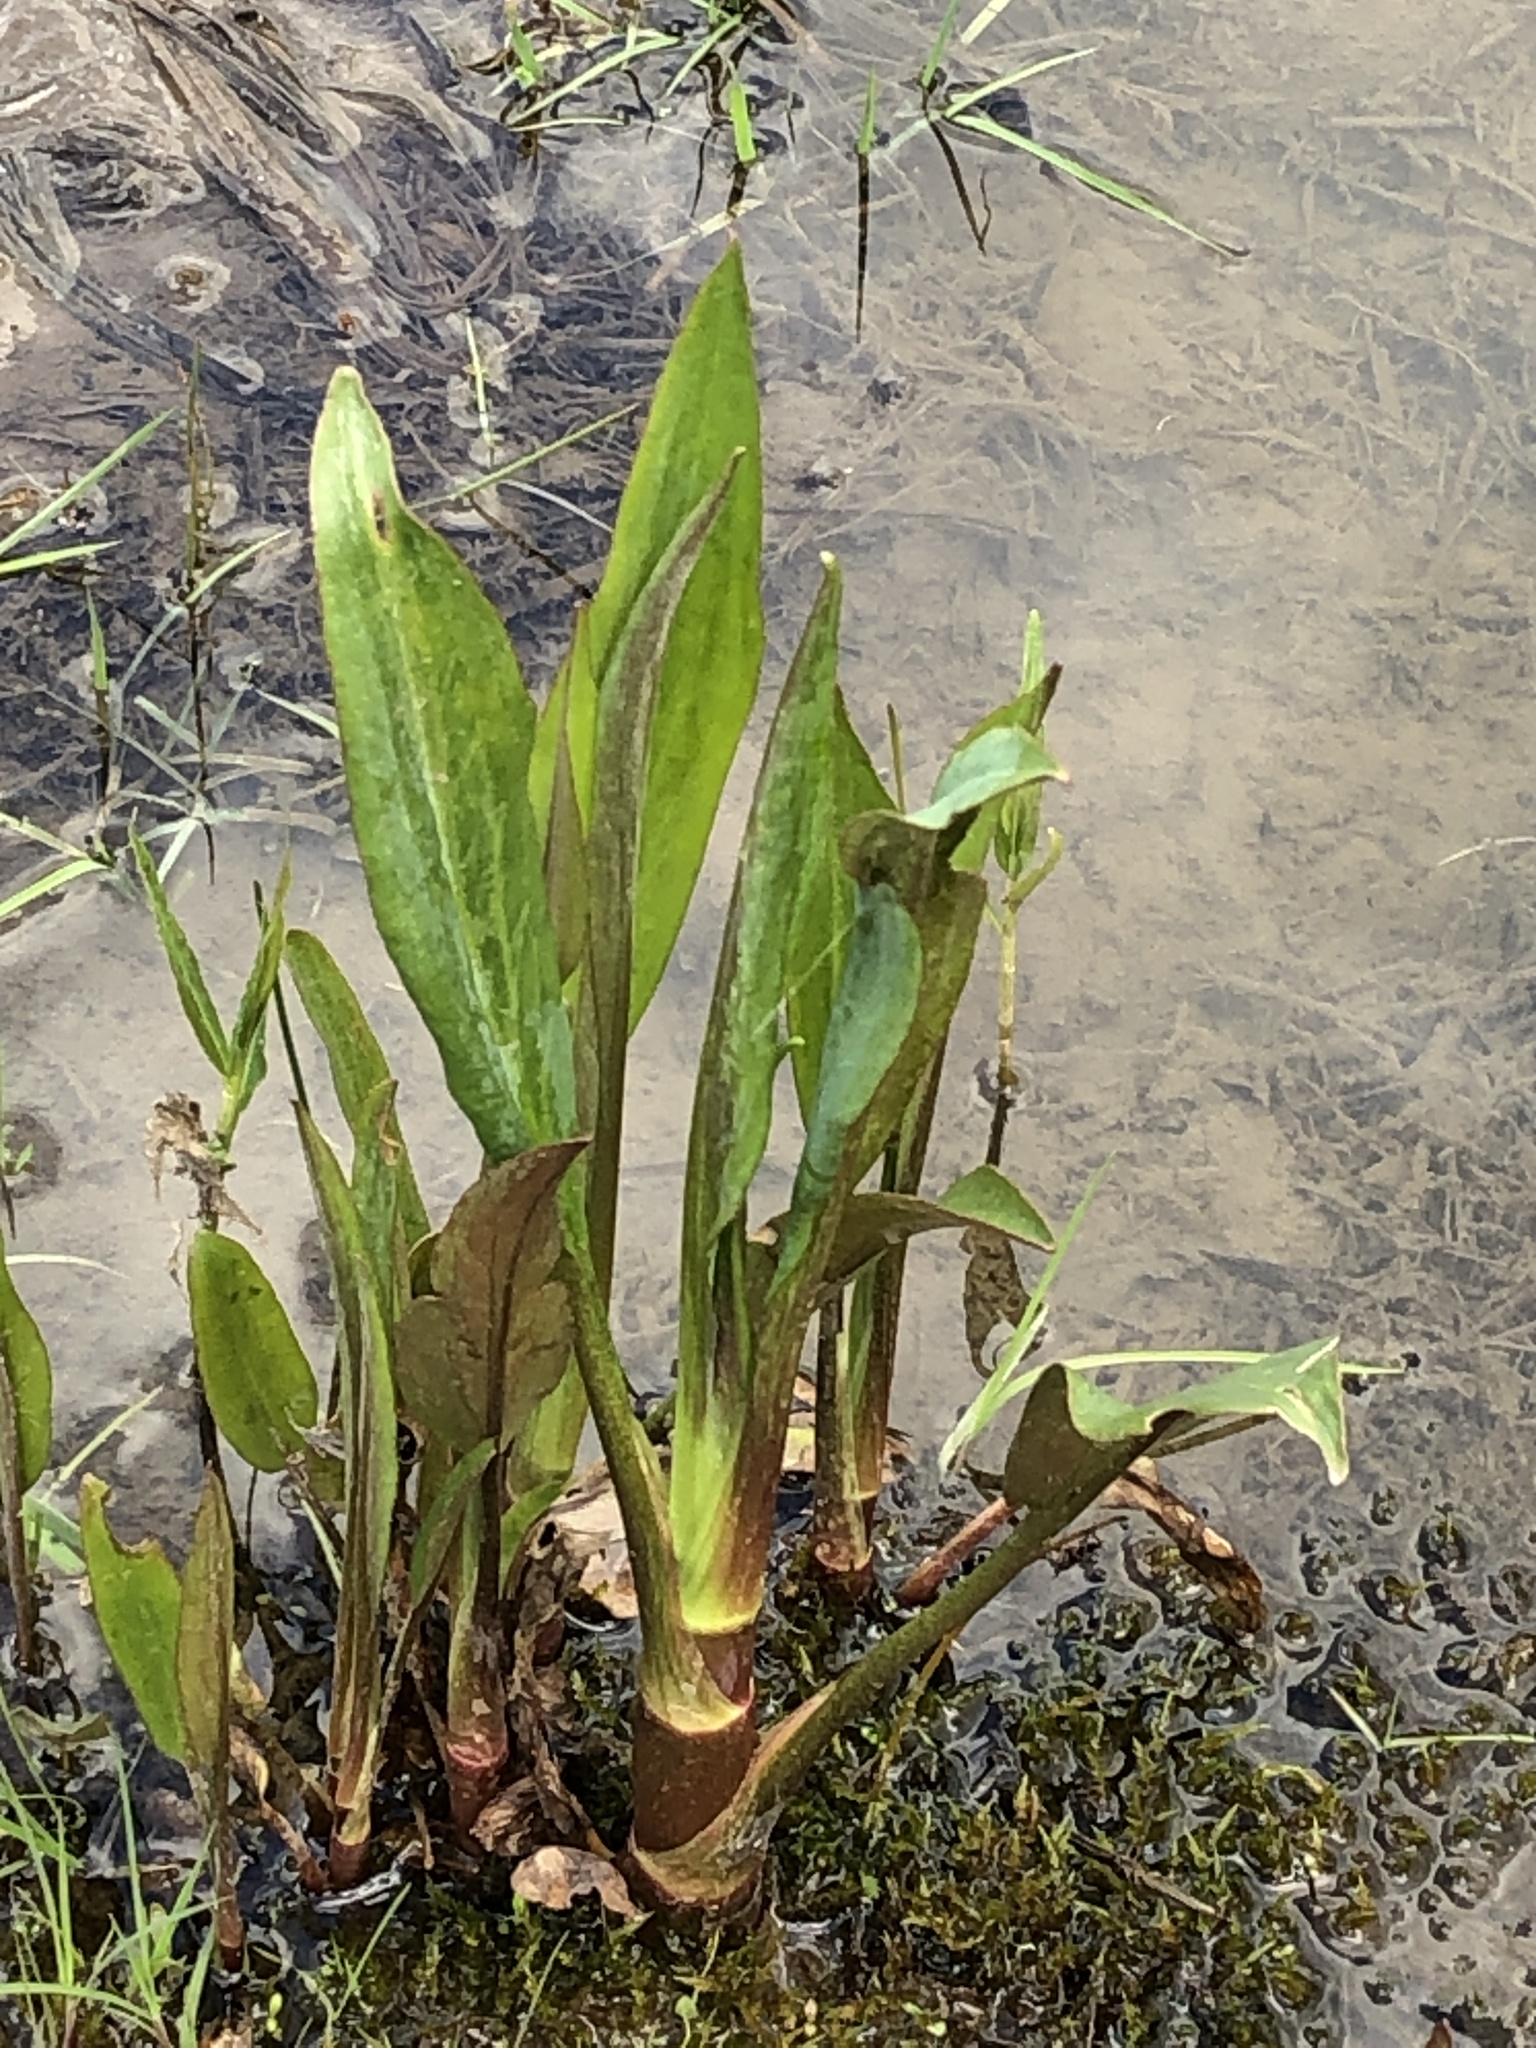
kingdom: Plantae
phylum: Tracheophyta
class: Liliopsida
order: Alismatales
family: Alismataceae
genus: Alisma
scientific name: Alisma plantago-aquatica
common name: Water-plantain
